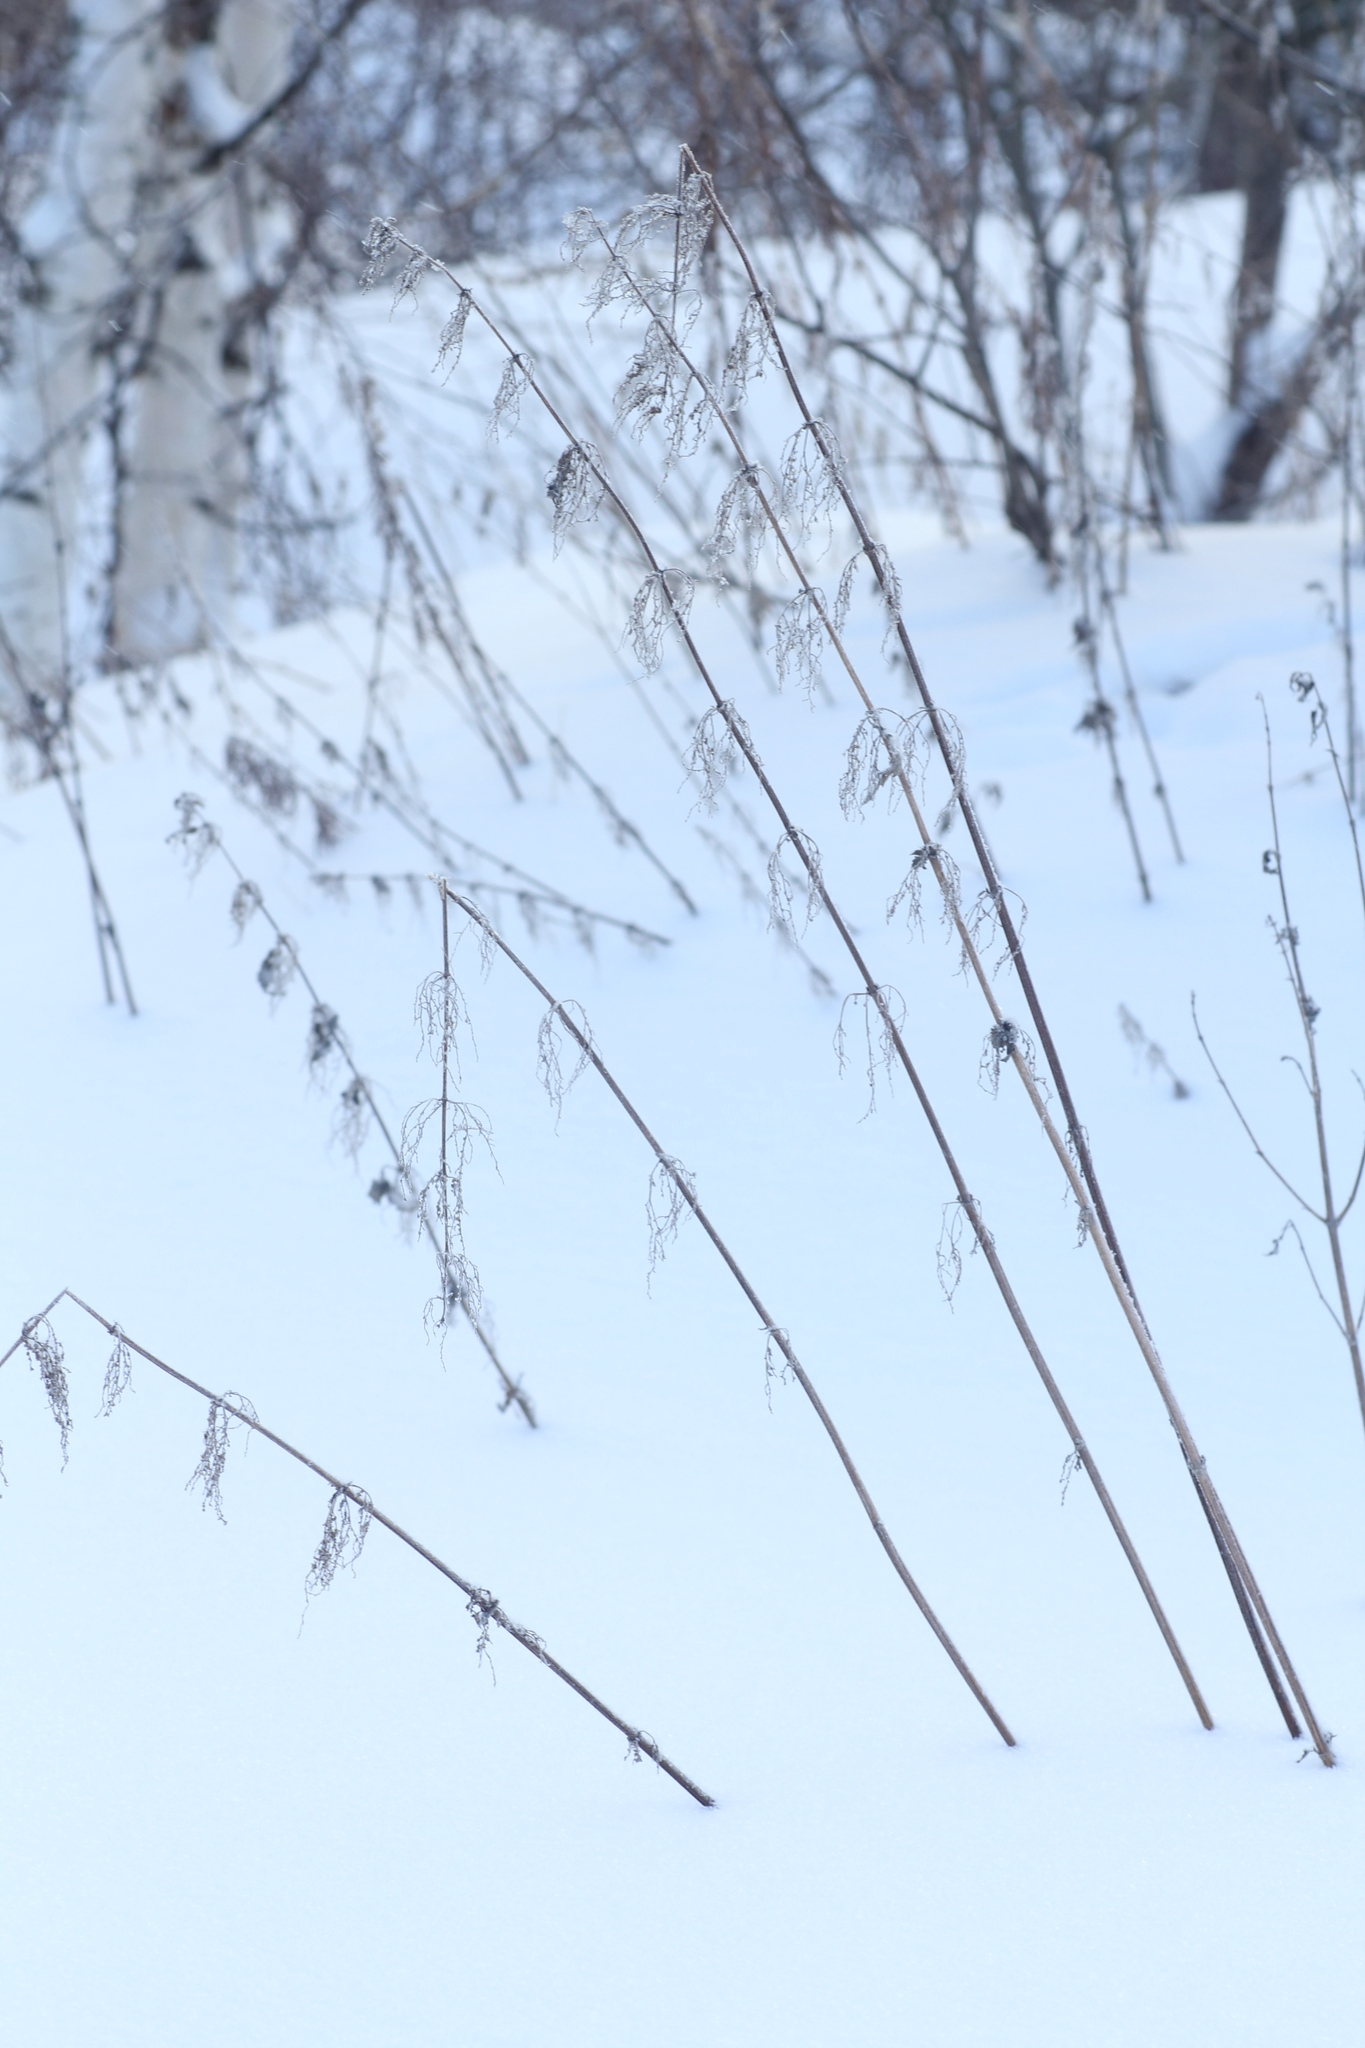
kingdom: Plantae
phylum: Tracheophyta
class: Magnoliopsida
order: Rosales
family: Urticaceae
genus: Urtica
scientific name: Urtica dioica
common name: Common nettle
